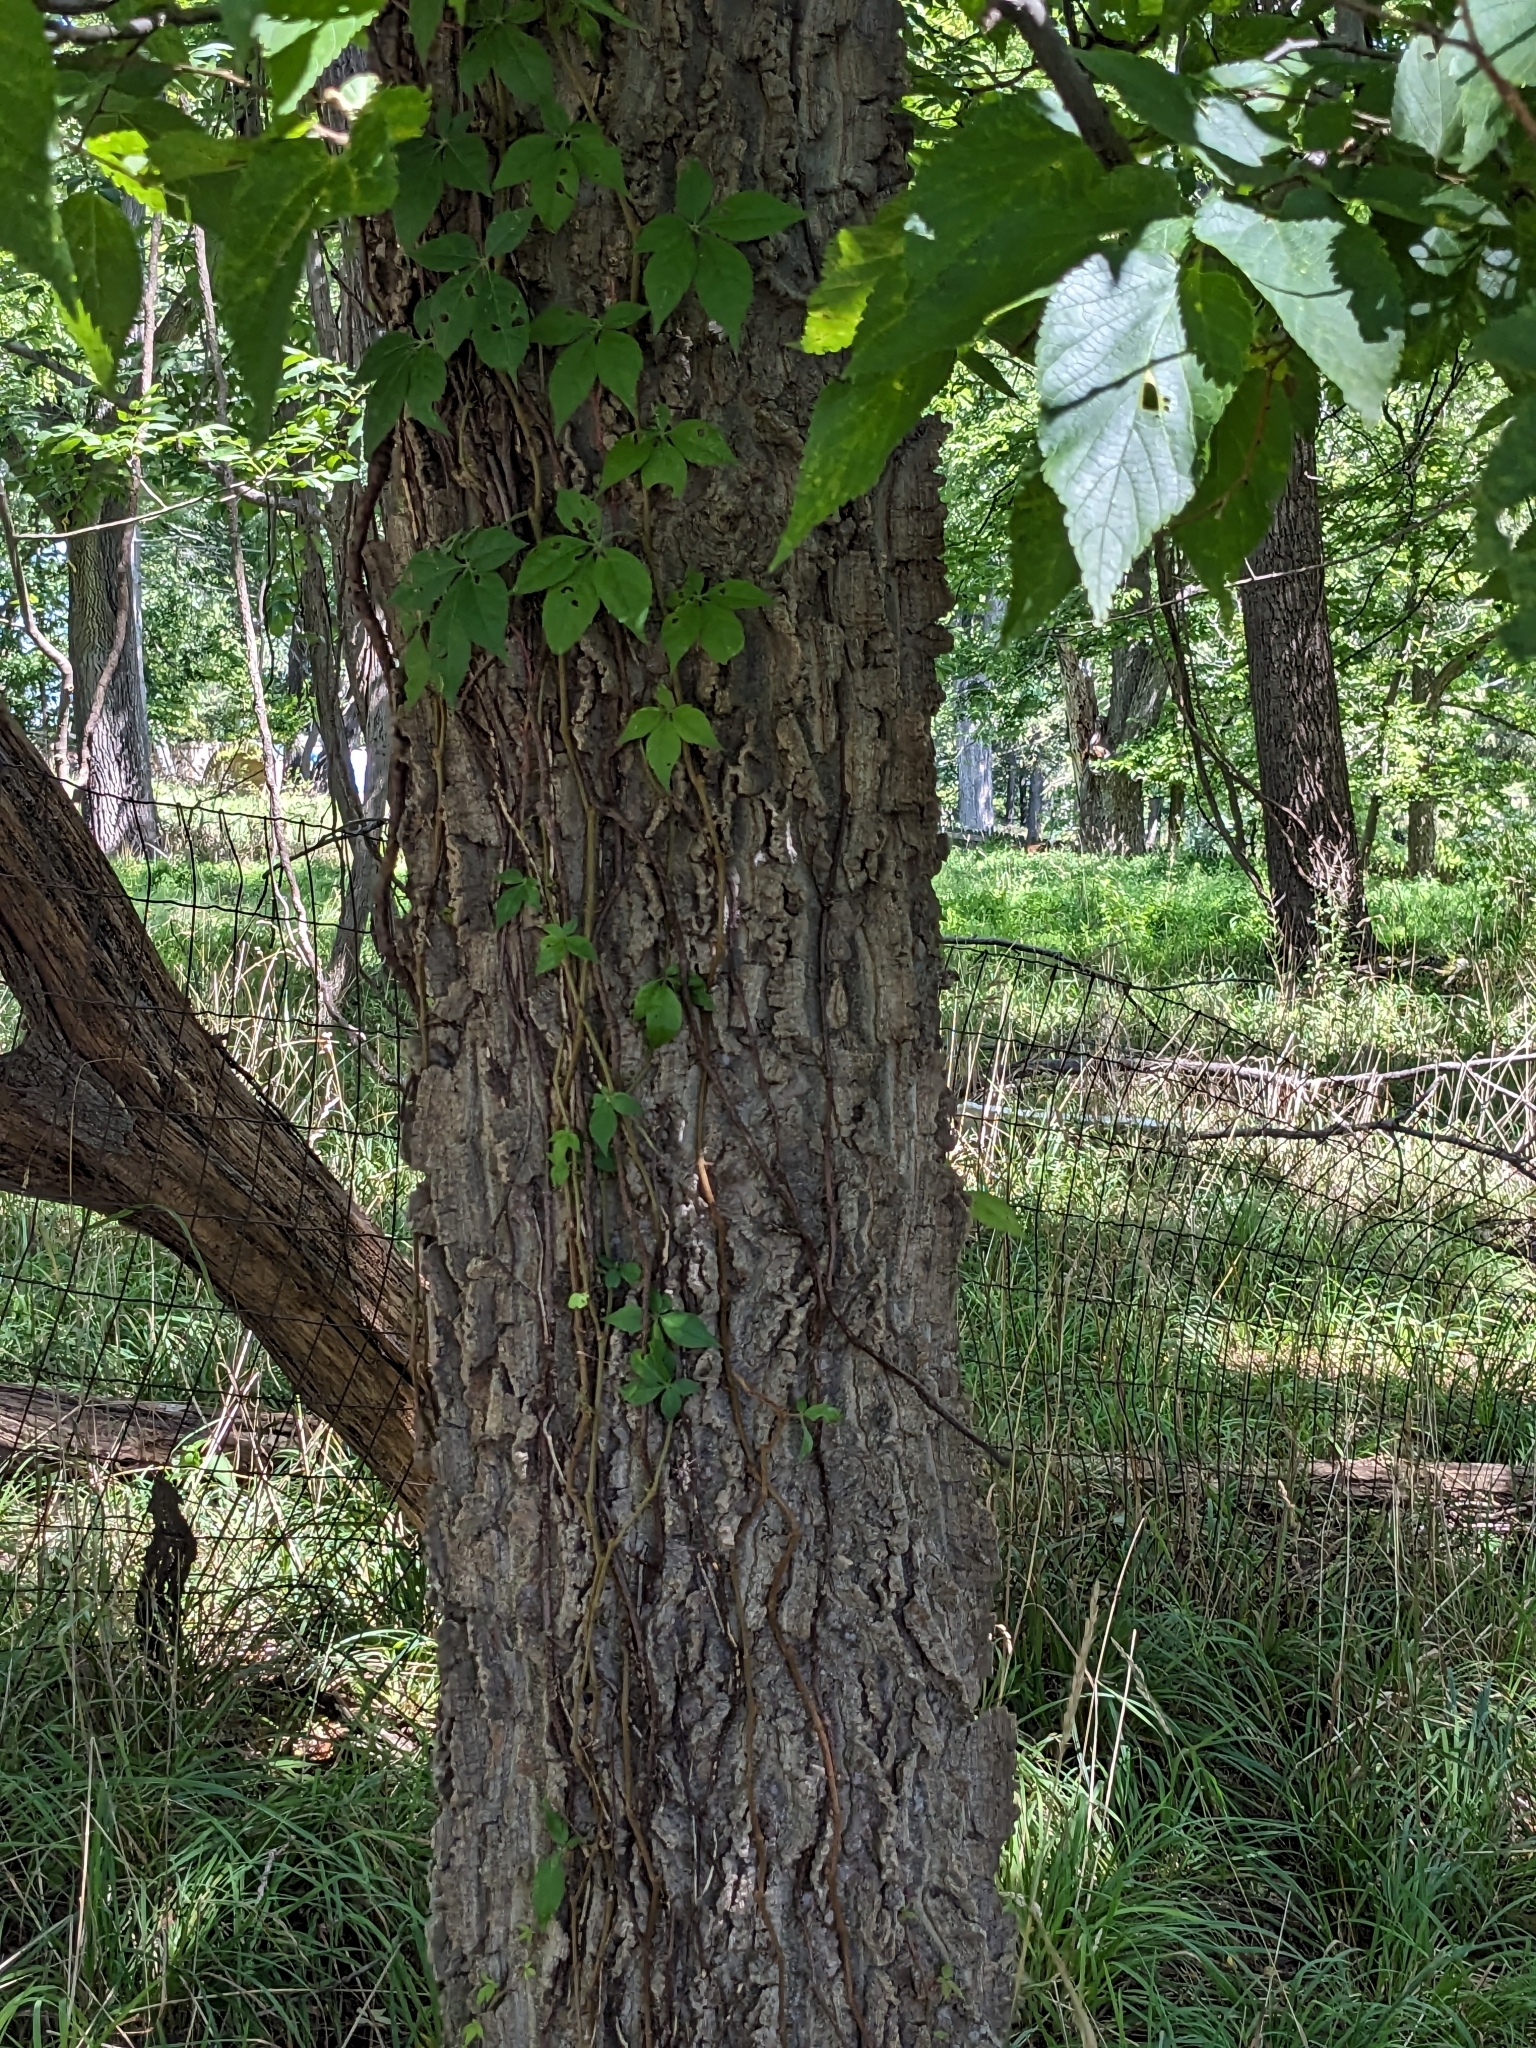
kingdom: Plantae
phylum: Tracheophyta
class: Magnoliopsida
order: Rosales
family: Cannabaceae
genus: Celtis
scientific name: Celtis occidentalis
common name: Common hackberry
